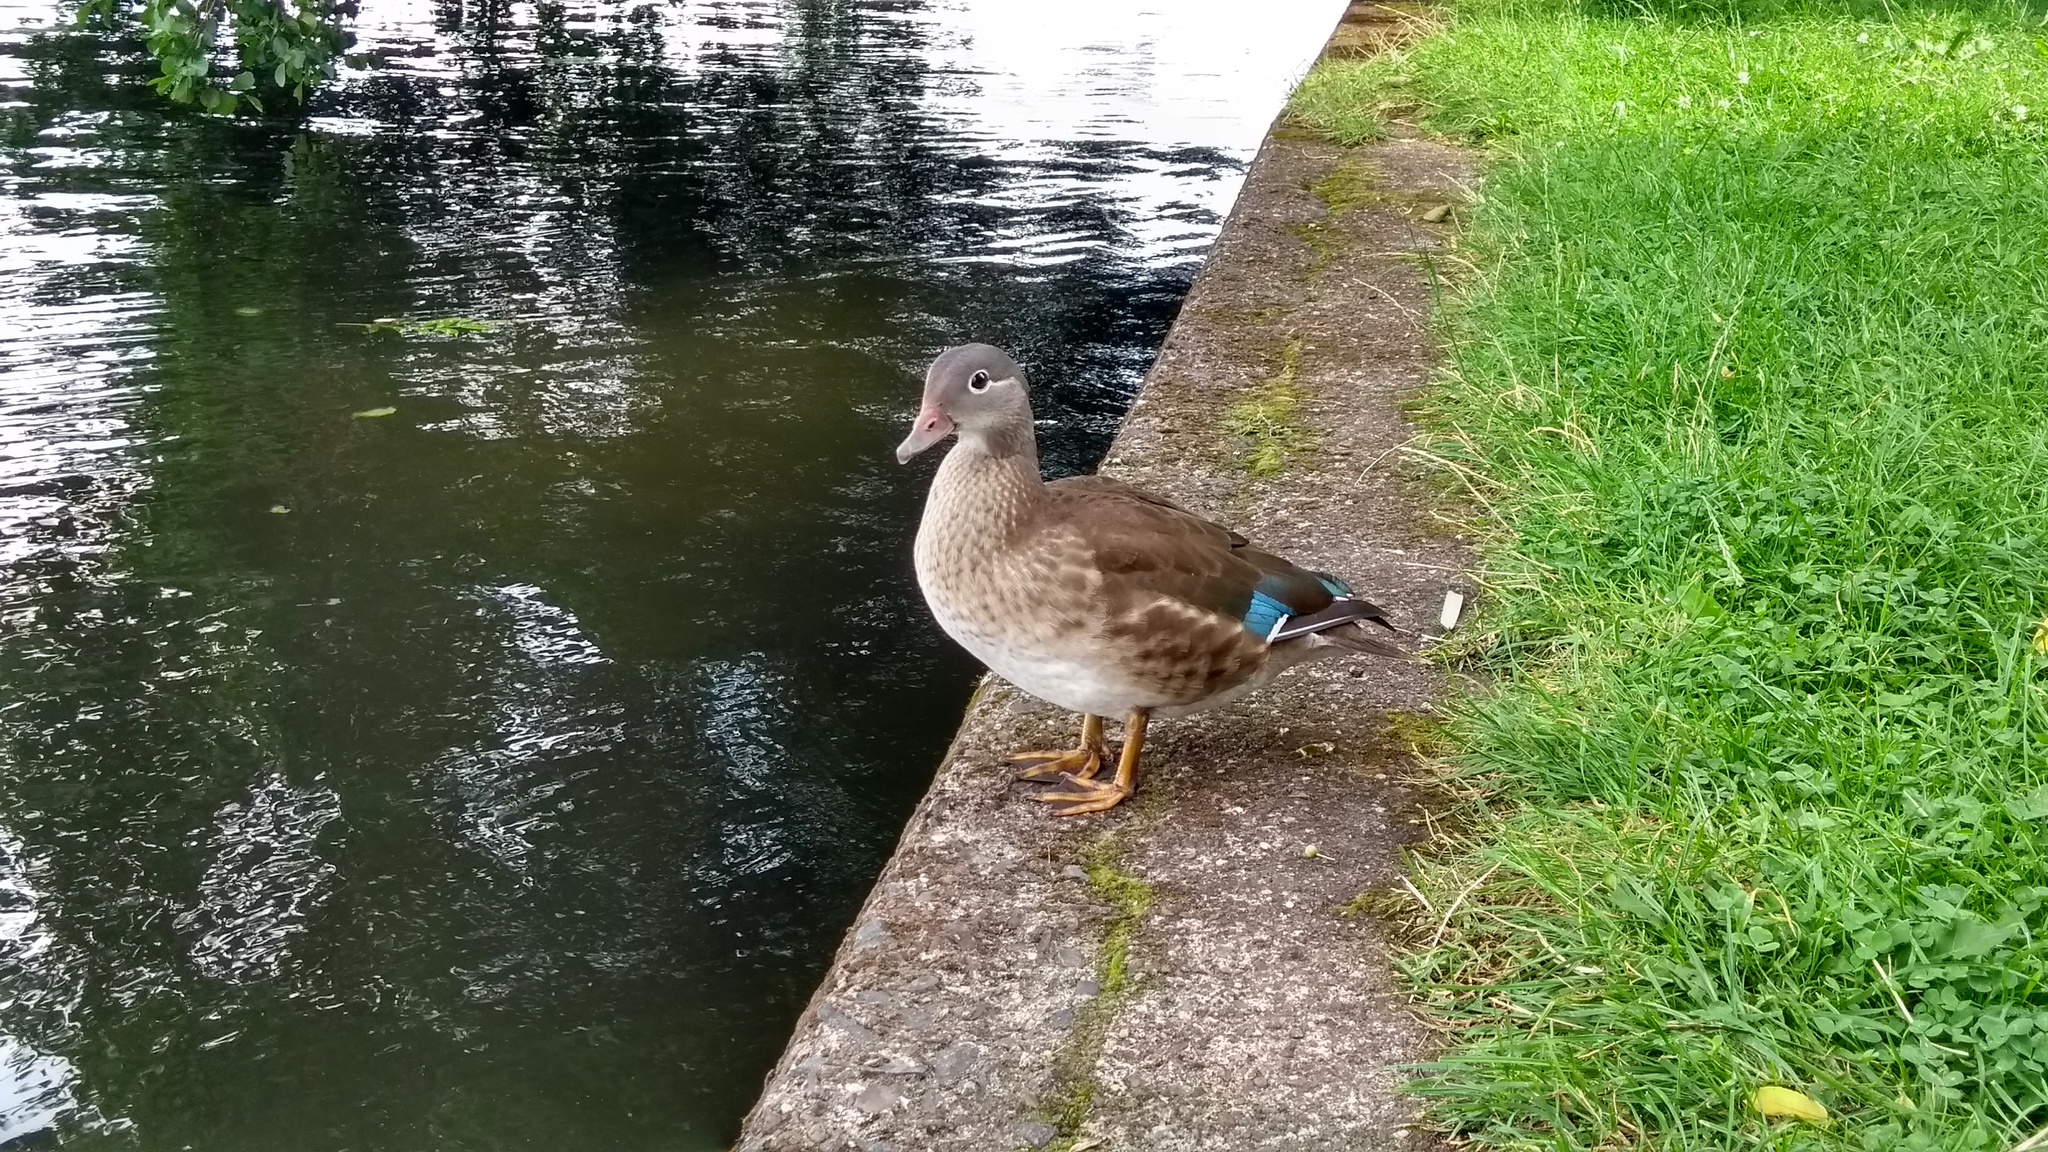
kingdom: Animalia
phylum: Chordata
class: Aves
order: Anseriformes
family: Anatidae
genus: Aix
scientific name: Aix galericulata
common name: Mandarin duck
